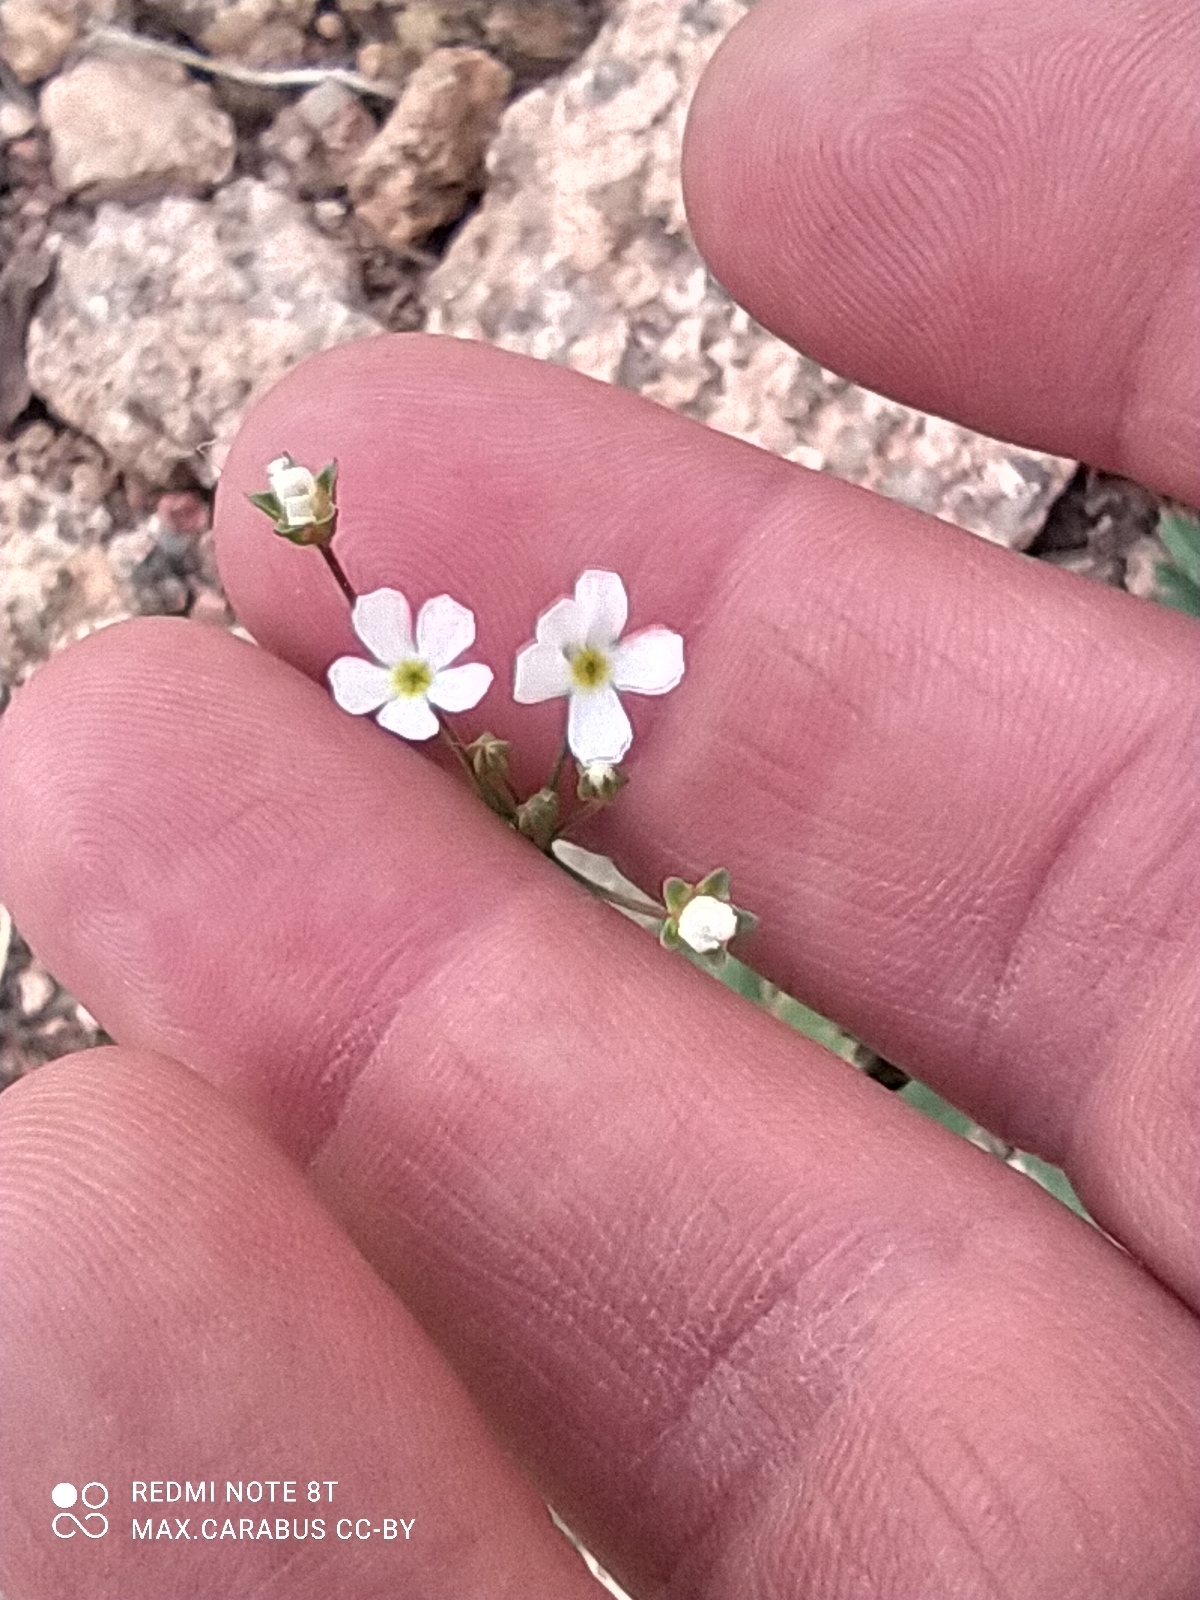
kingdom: Plantae
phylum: Tracheophyta
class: Magnoliopsida
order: Ericales
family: Primulaceae
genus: Androsace
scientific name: Androsace maxima
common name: Annual androsace
